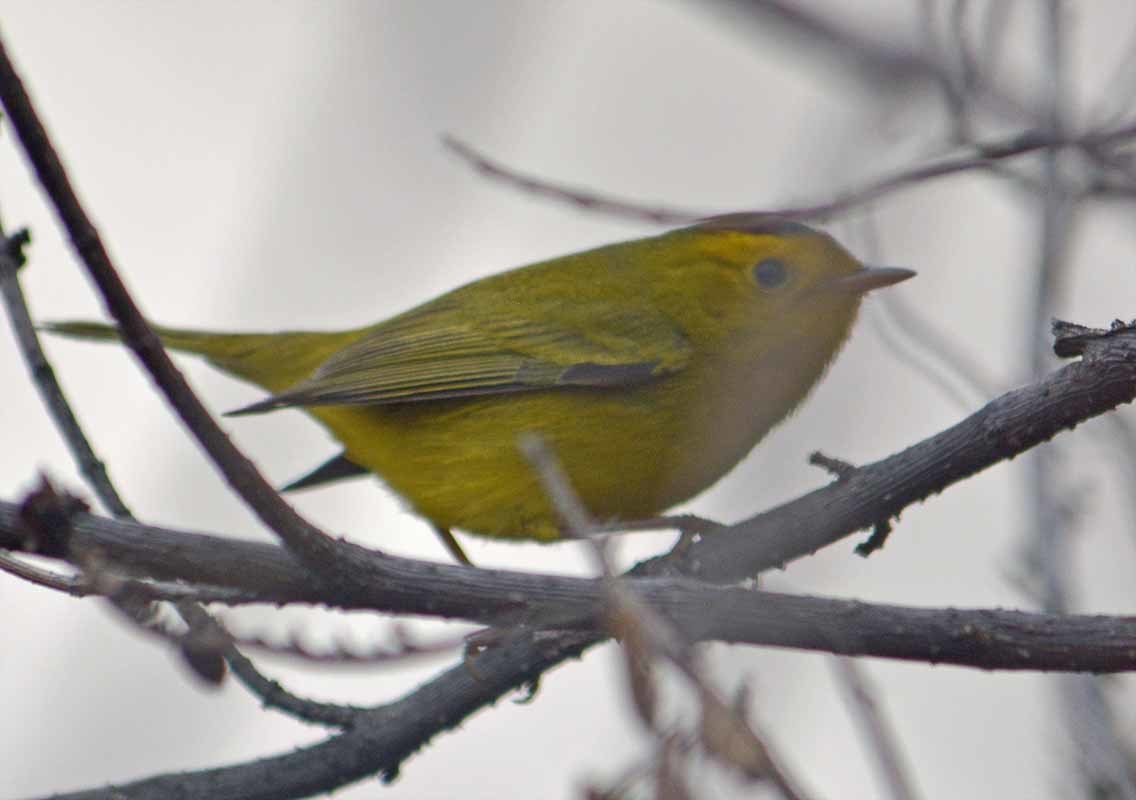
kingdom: Animalia
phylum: Chordata
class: Aves
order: Passeriformes
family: Parulidae
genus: Cardellina
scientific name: Cardellina pusilla
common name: Wilson's warbler
